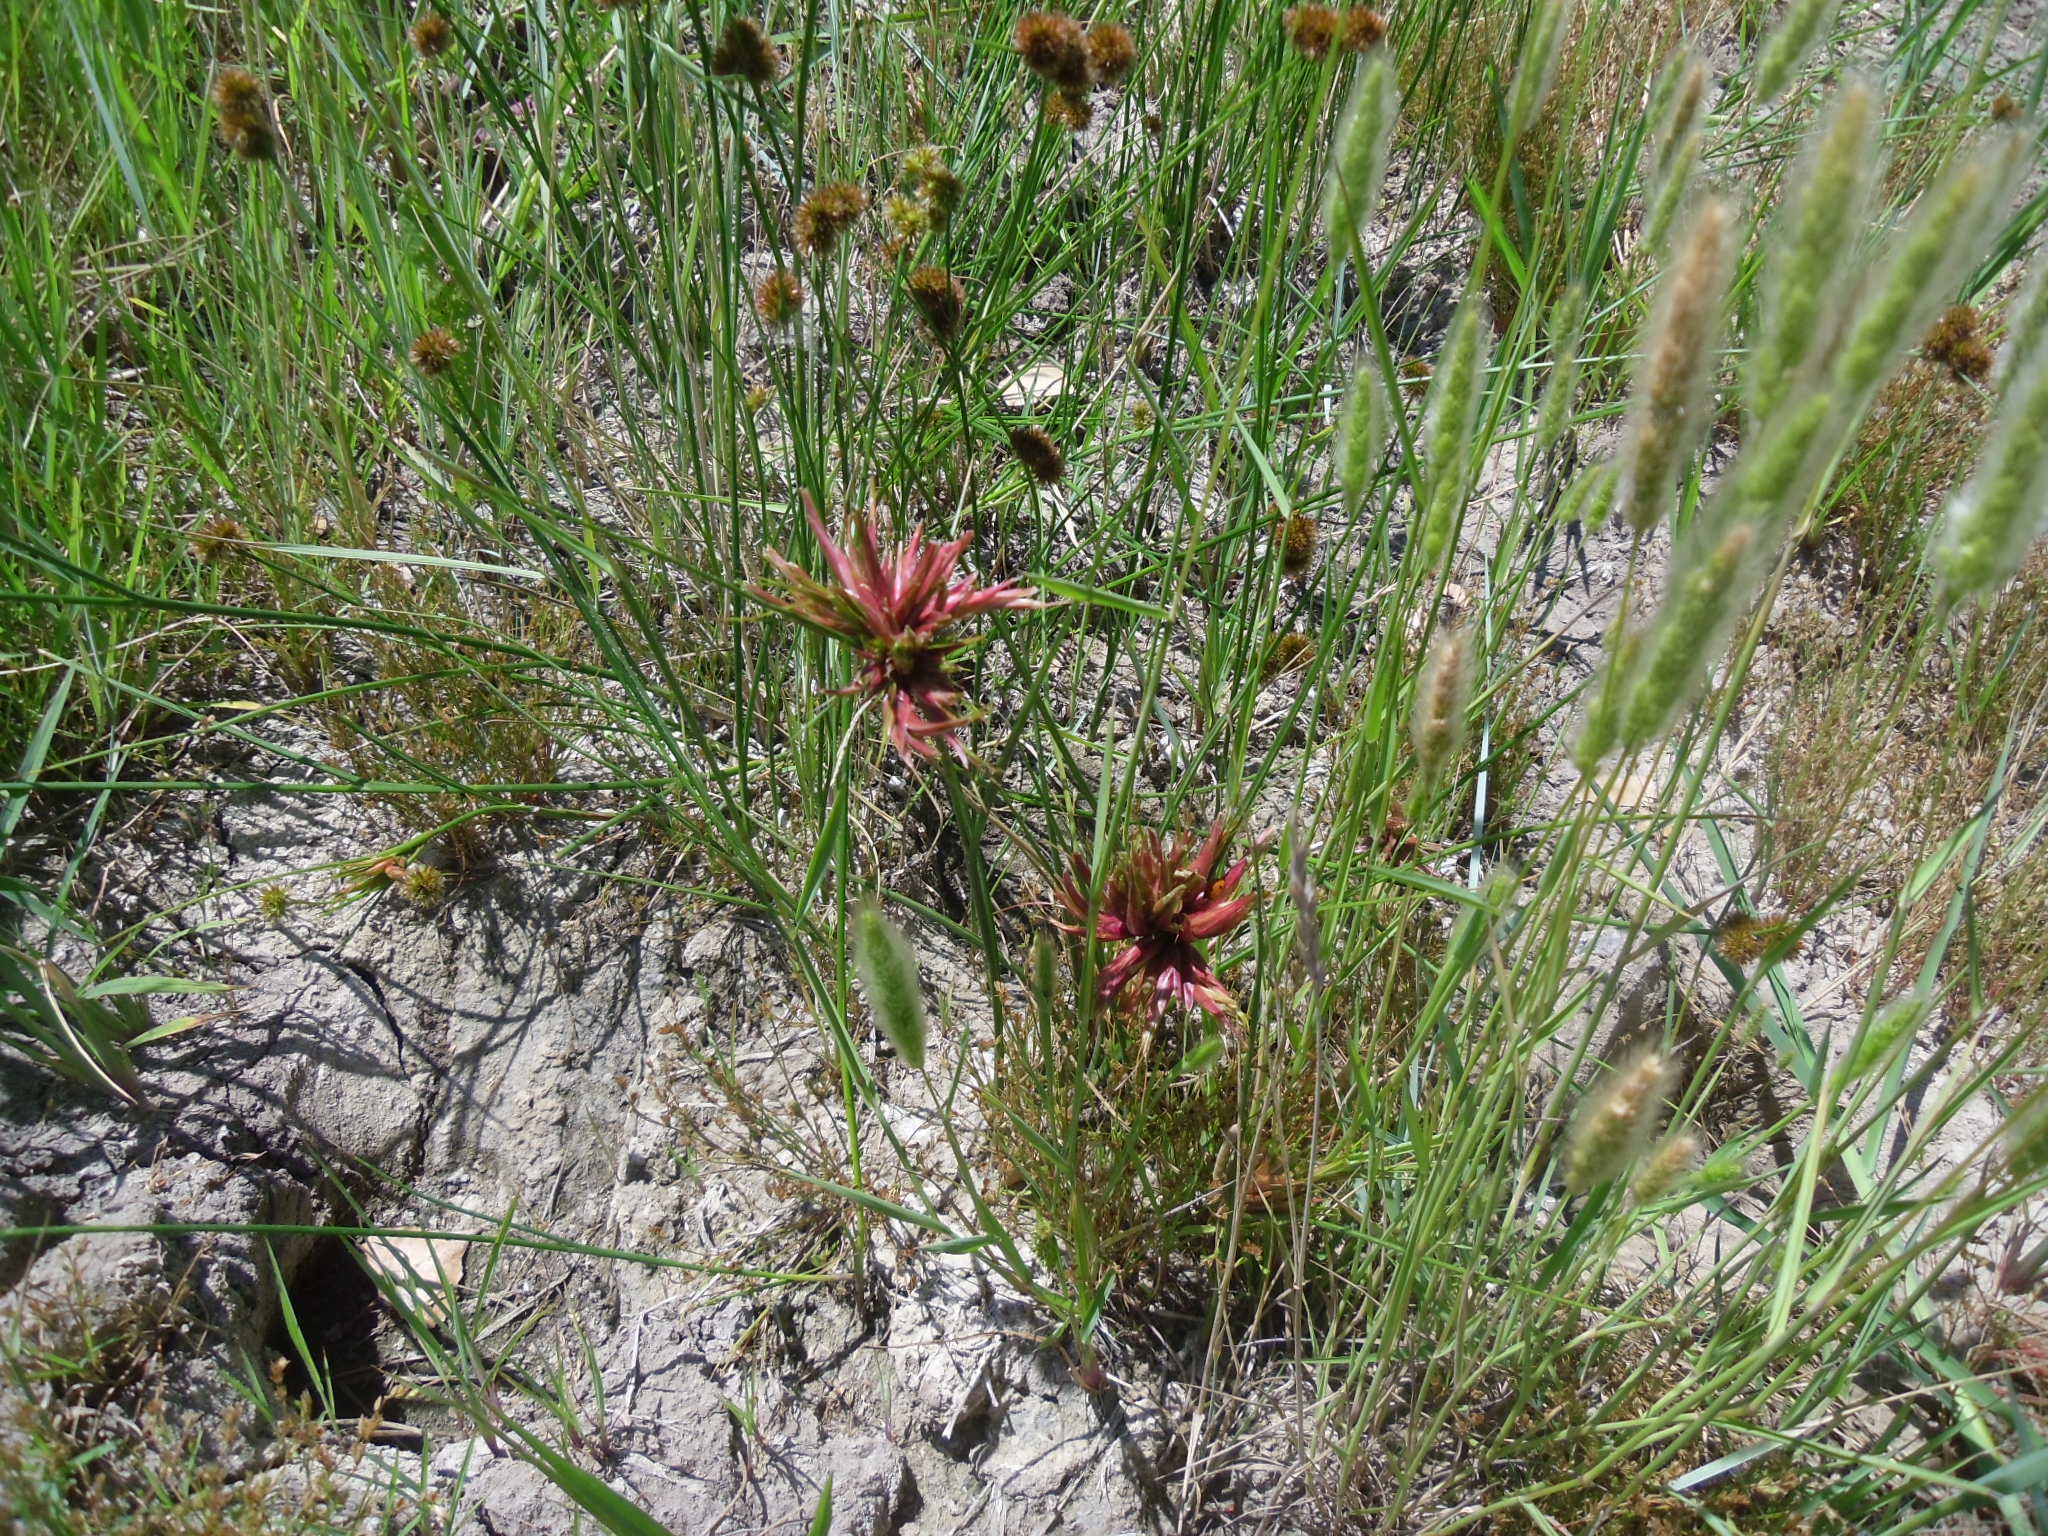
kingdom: Plantae
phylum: Tracheophyta
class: Liliopsida
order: Poales
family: Juncaceae
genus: Juncus
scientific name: Juncus torreyi
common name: Torrey's rush
